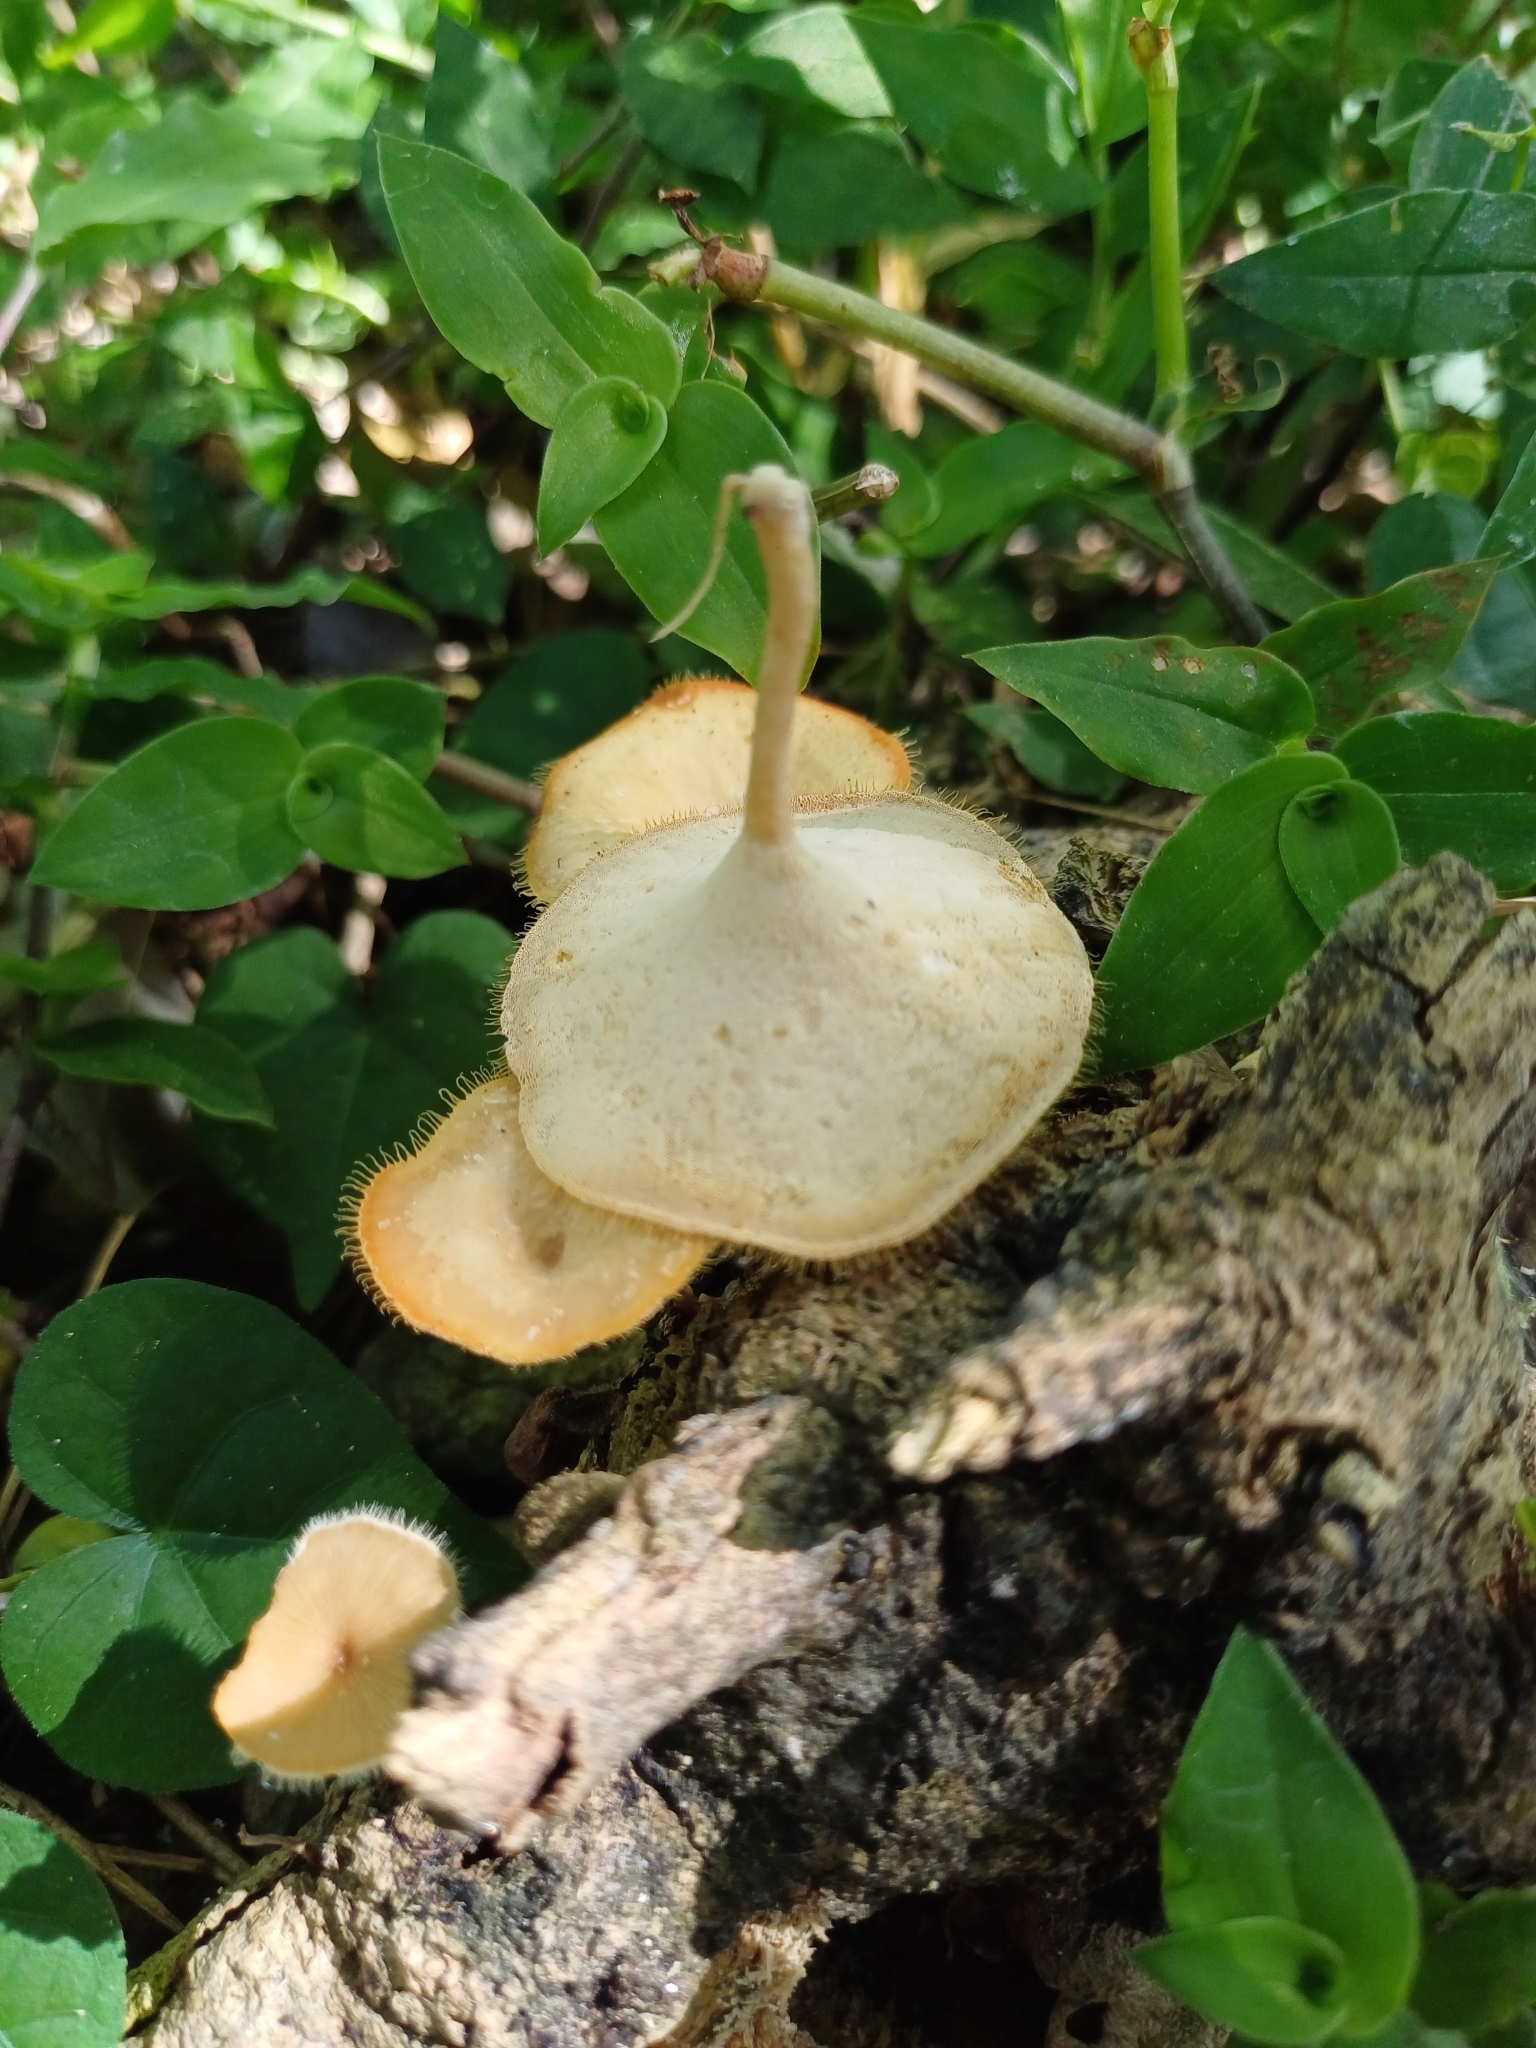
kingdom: Fungi
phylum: Basidiomycota
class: Agaricomycetes
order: Polyporales
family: Polyporaceae
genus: Lentinus
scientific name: Lentinus flexipes
